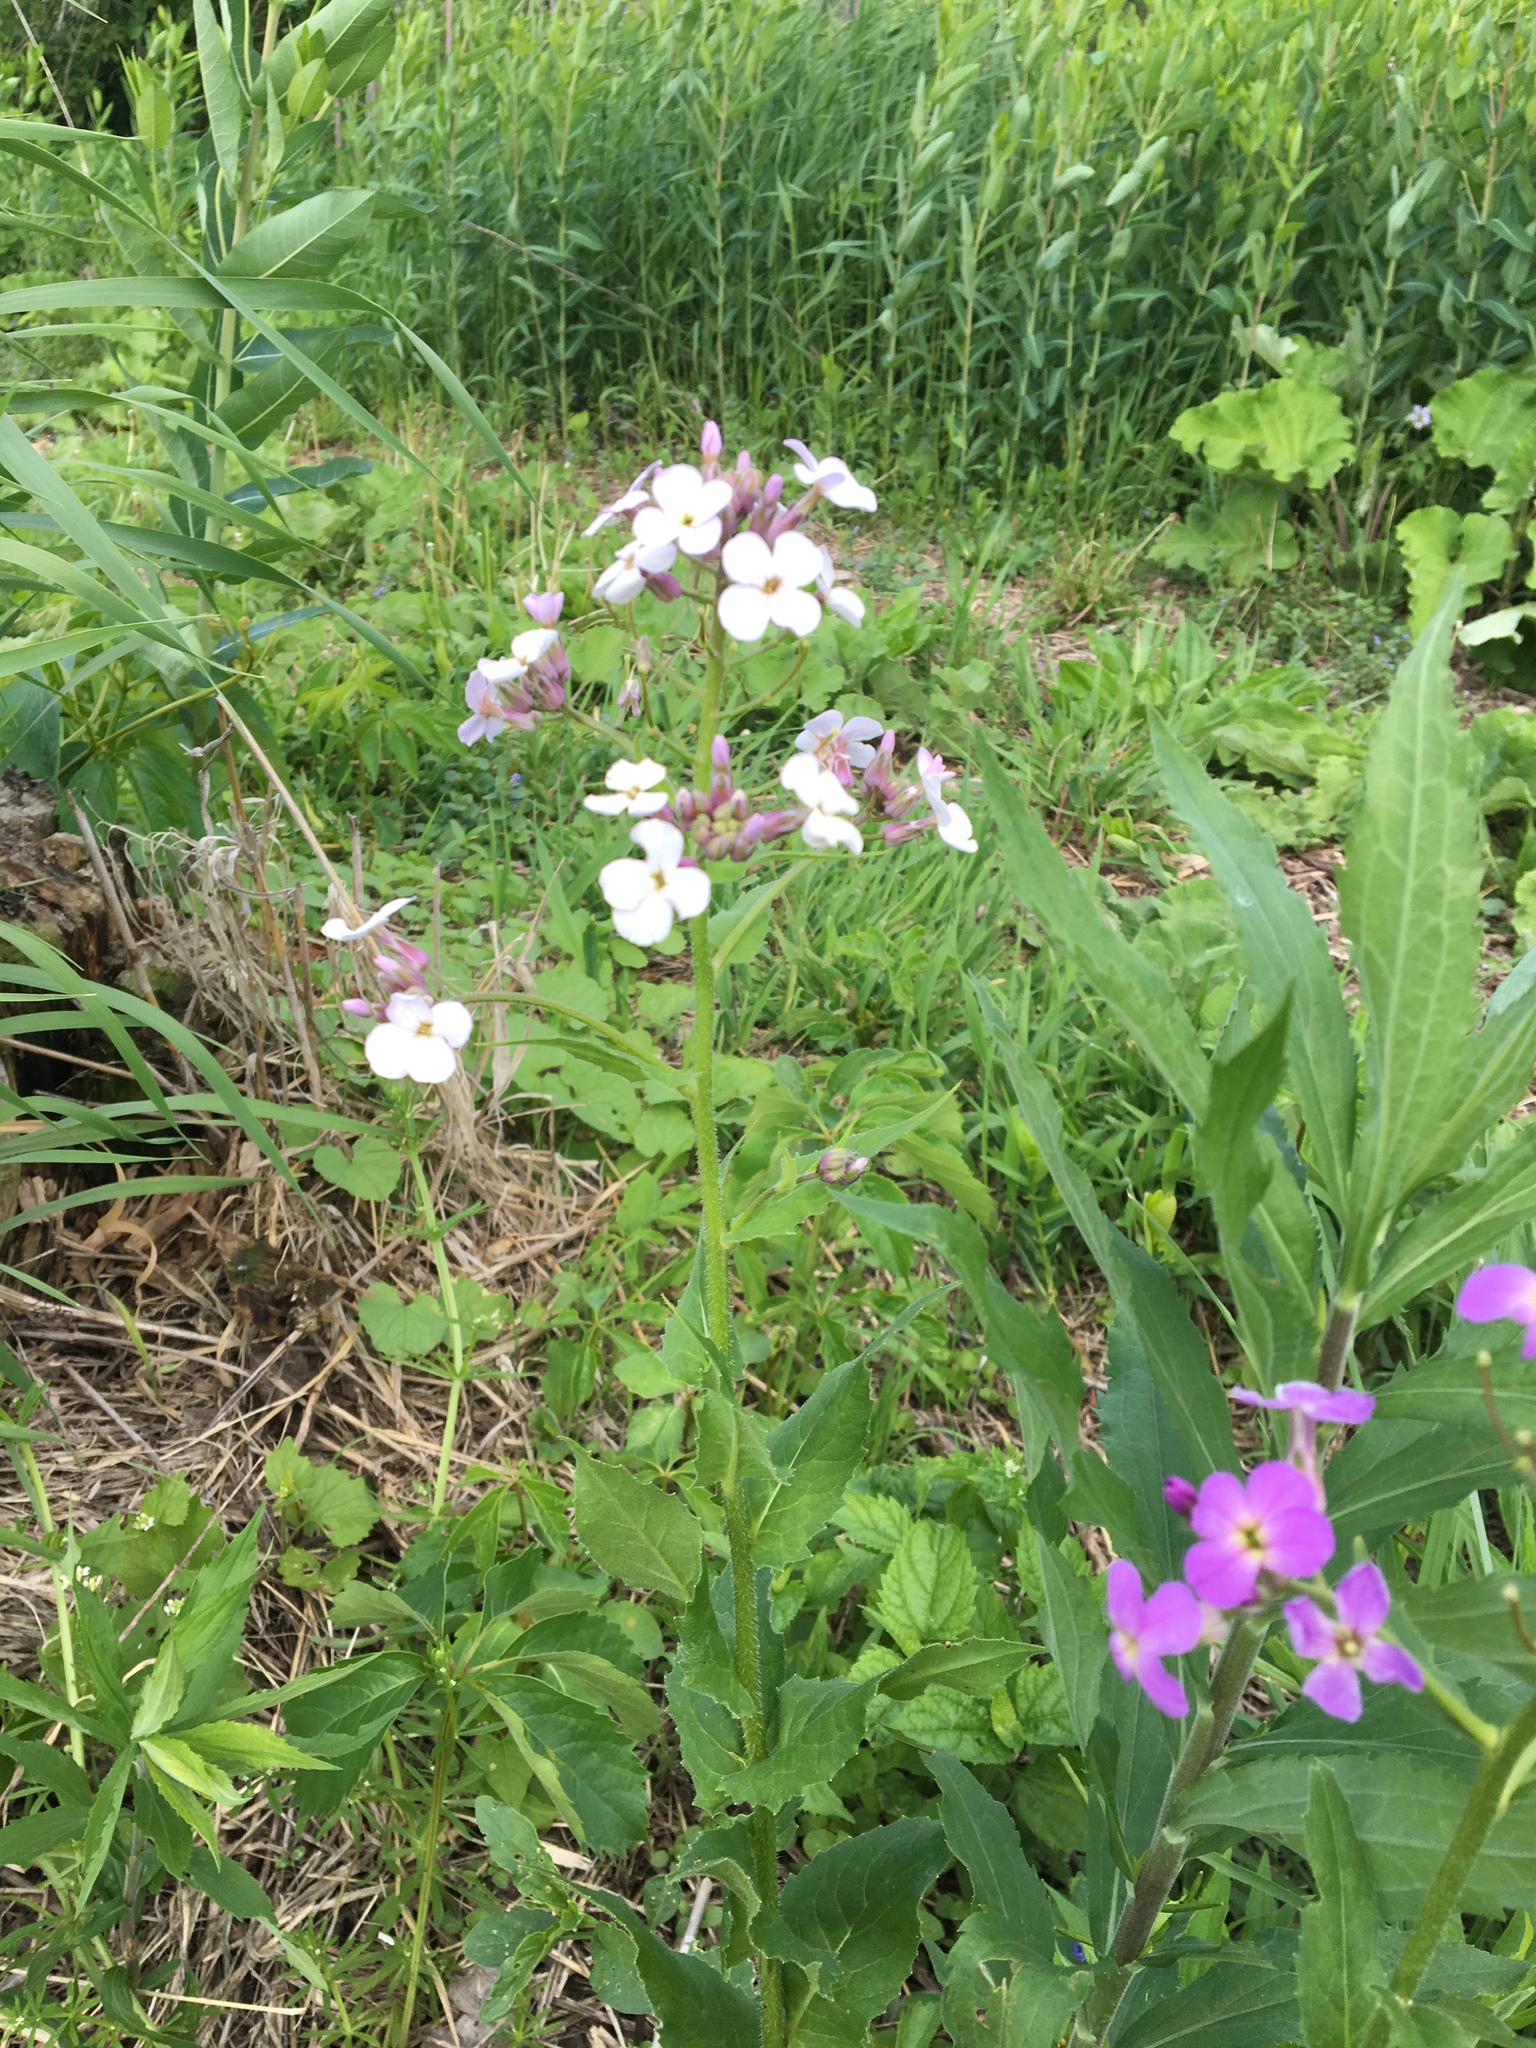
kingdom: Plantae
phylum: Tracheophyta
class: Magnoliopsida
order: Brassicales
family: Brassicaceae
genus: Hesperis
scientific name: Hesperis matronalis
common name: Dame's-violet
